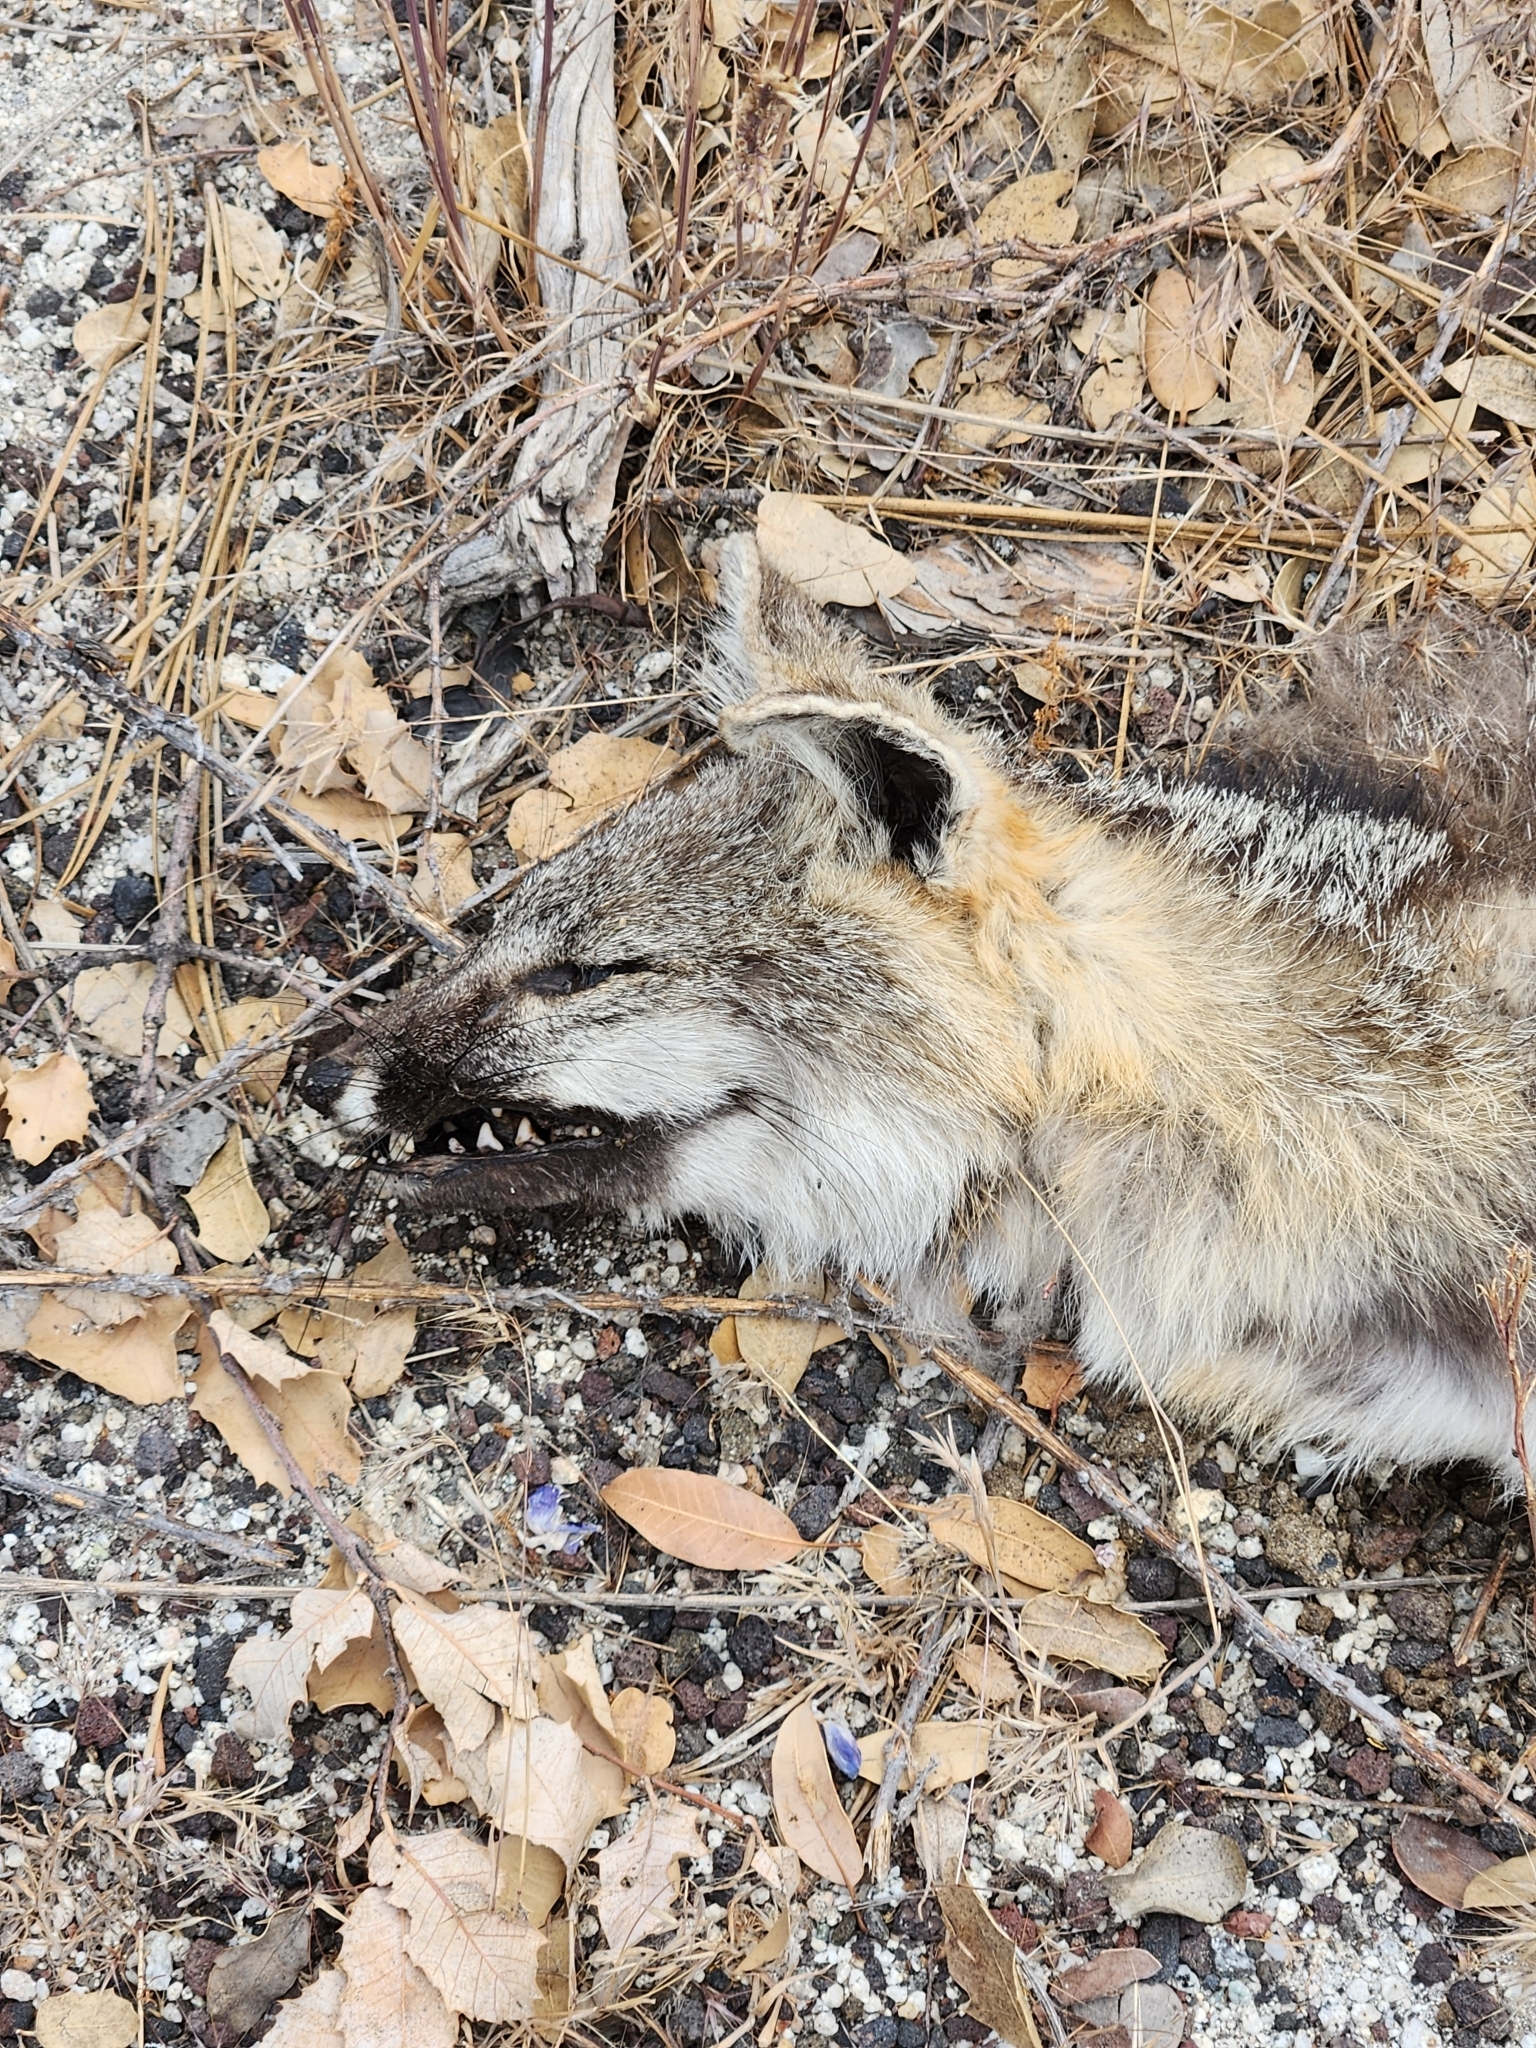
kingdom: Animalia
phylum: Chordata
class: Mammalia
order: Carnivora
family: Canidae
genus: Urocyon
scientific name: Urocyon cinereoargenteus
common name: Gray fox
